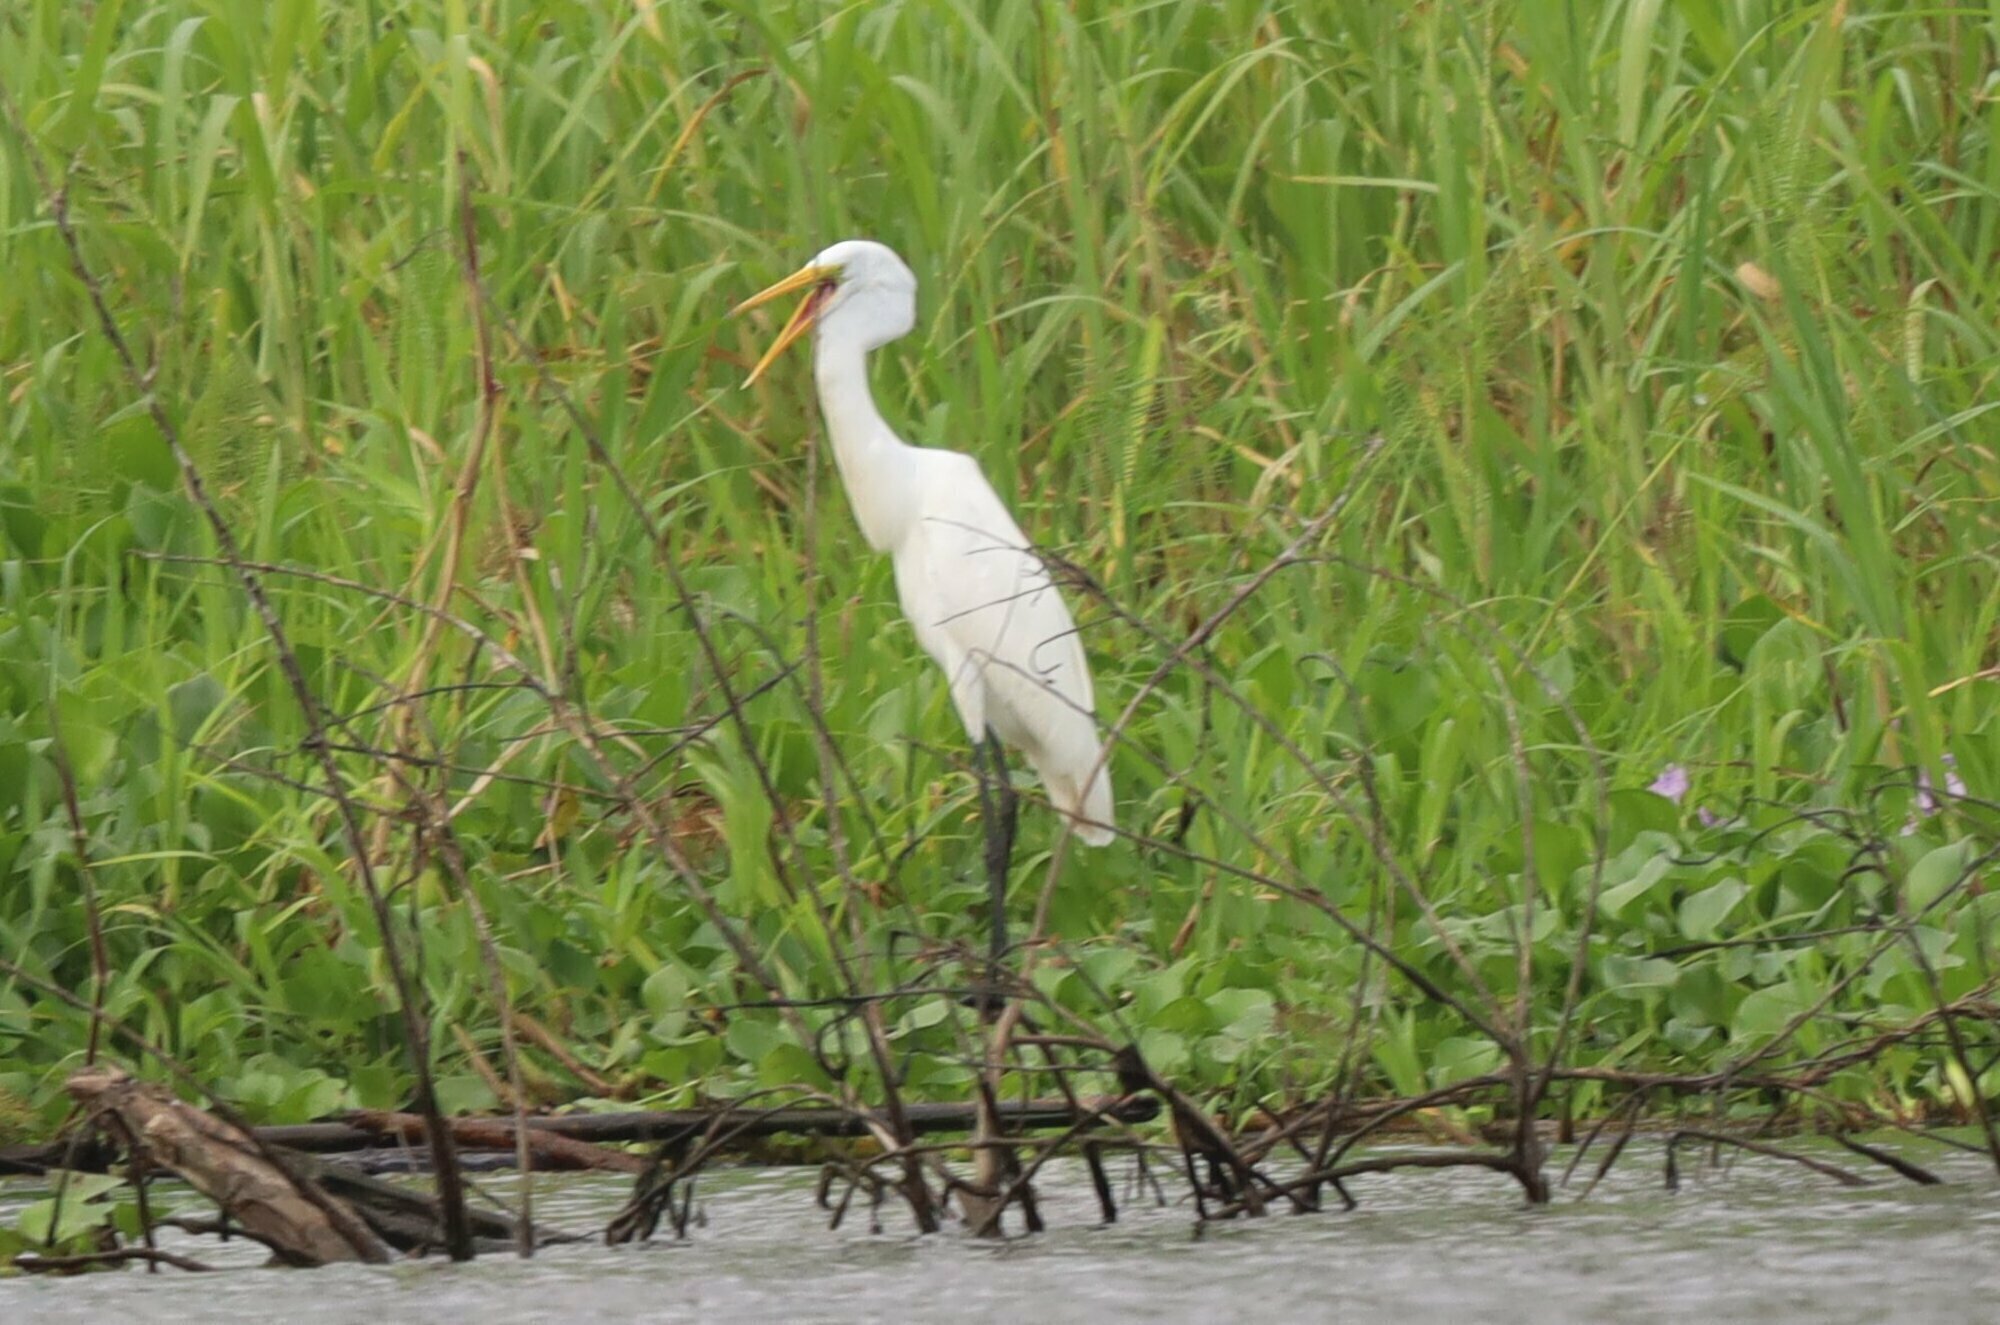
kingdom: Animalia
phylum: Chordata
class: Aves
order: Pelecaniformes
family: Ardeidae
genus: Ardea
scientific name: Ardea alba
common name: Great egret
